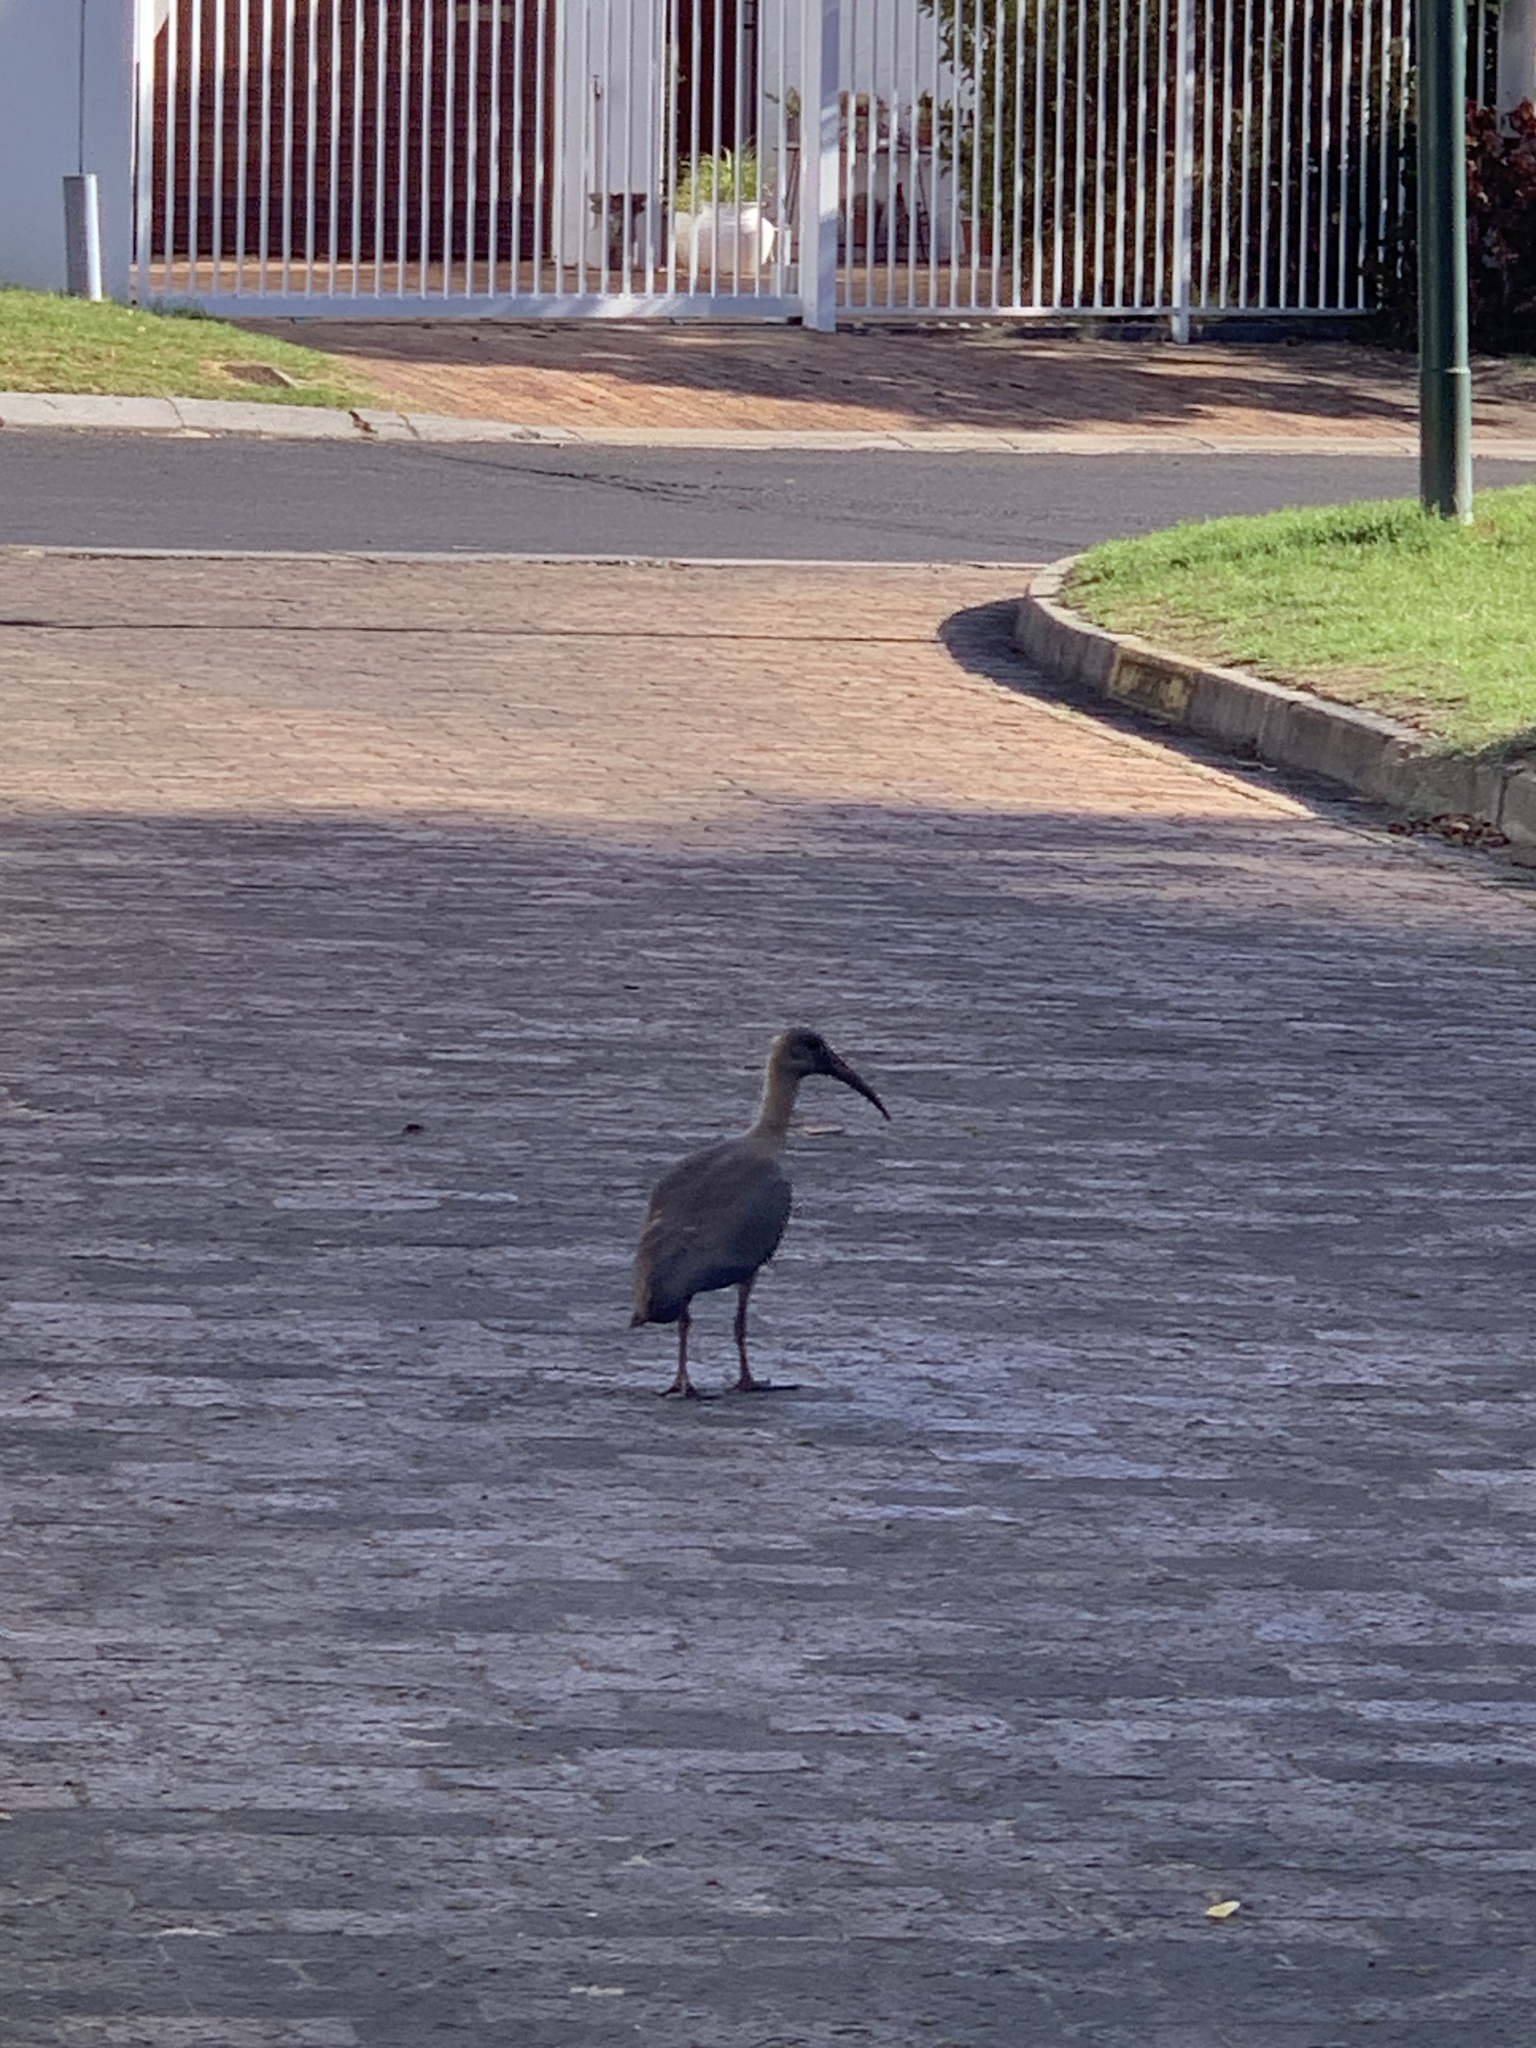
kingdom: Animalia
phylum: Chordata
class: Aves
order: Pelecaniformes
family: Threskiornithidae
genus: Bostrychia
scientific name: Bostrychia hagedash
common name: Hadada ibis
